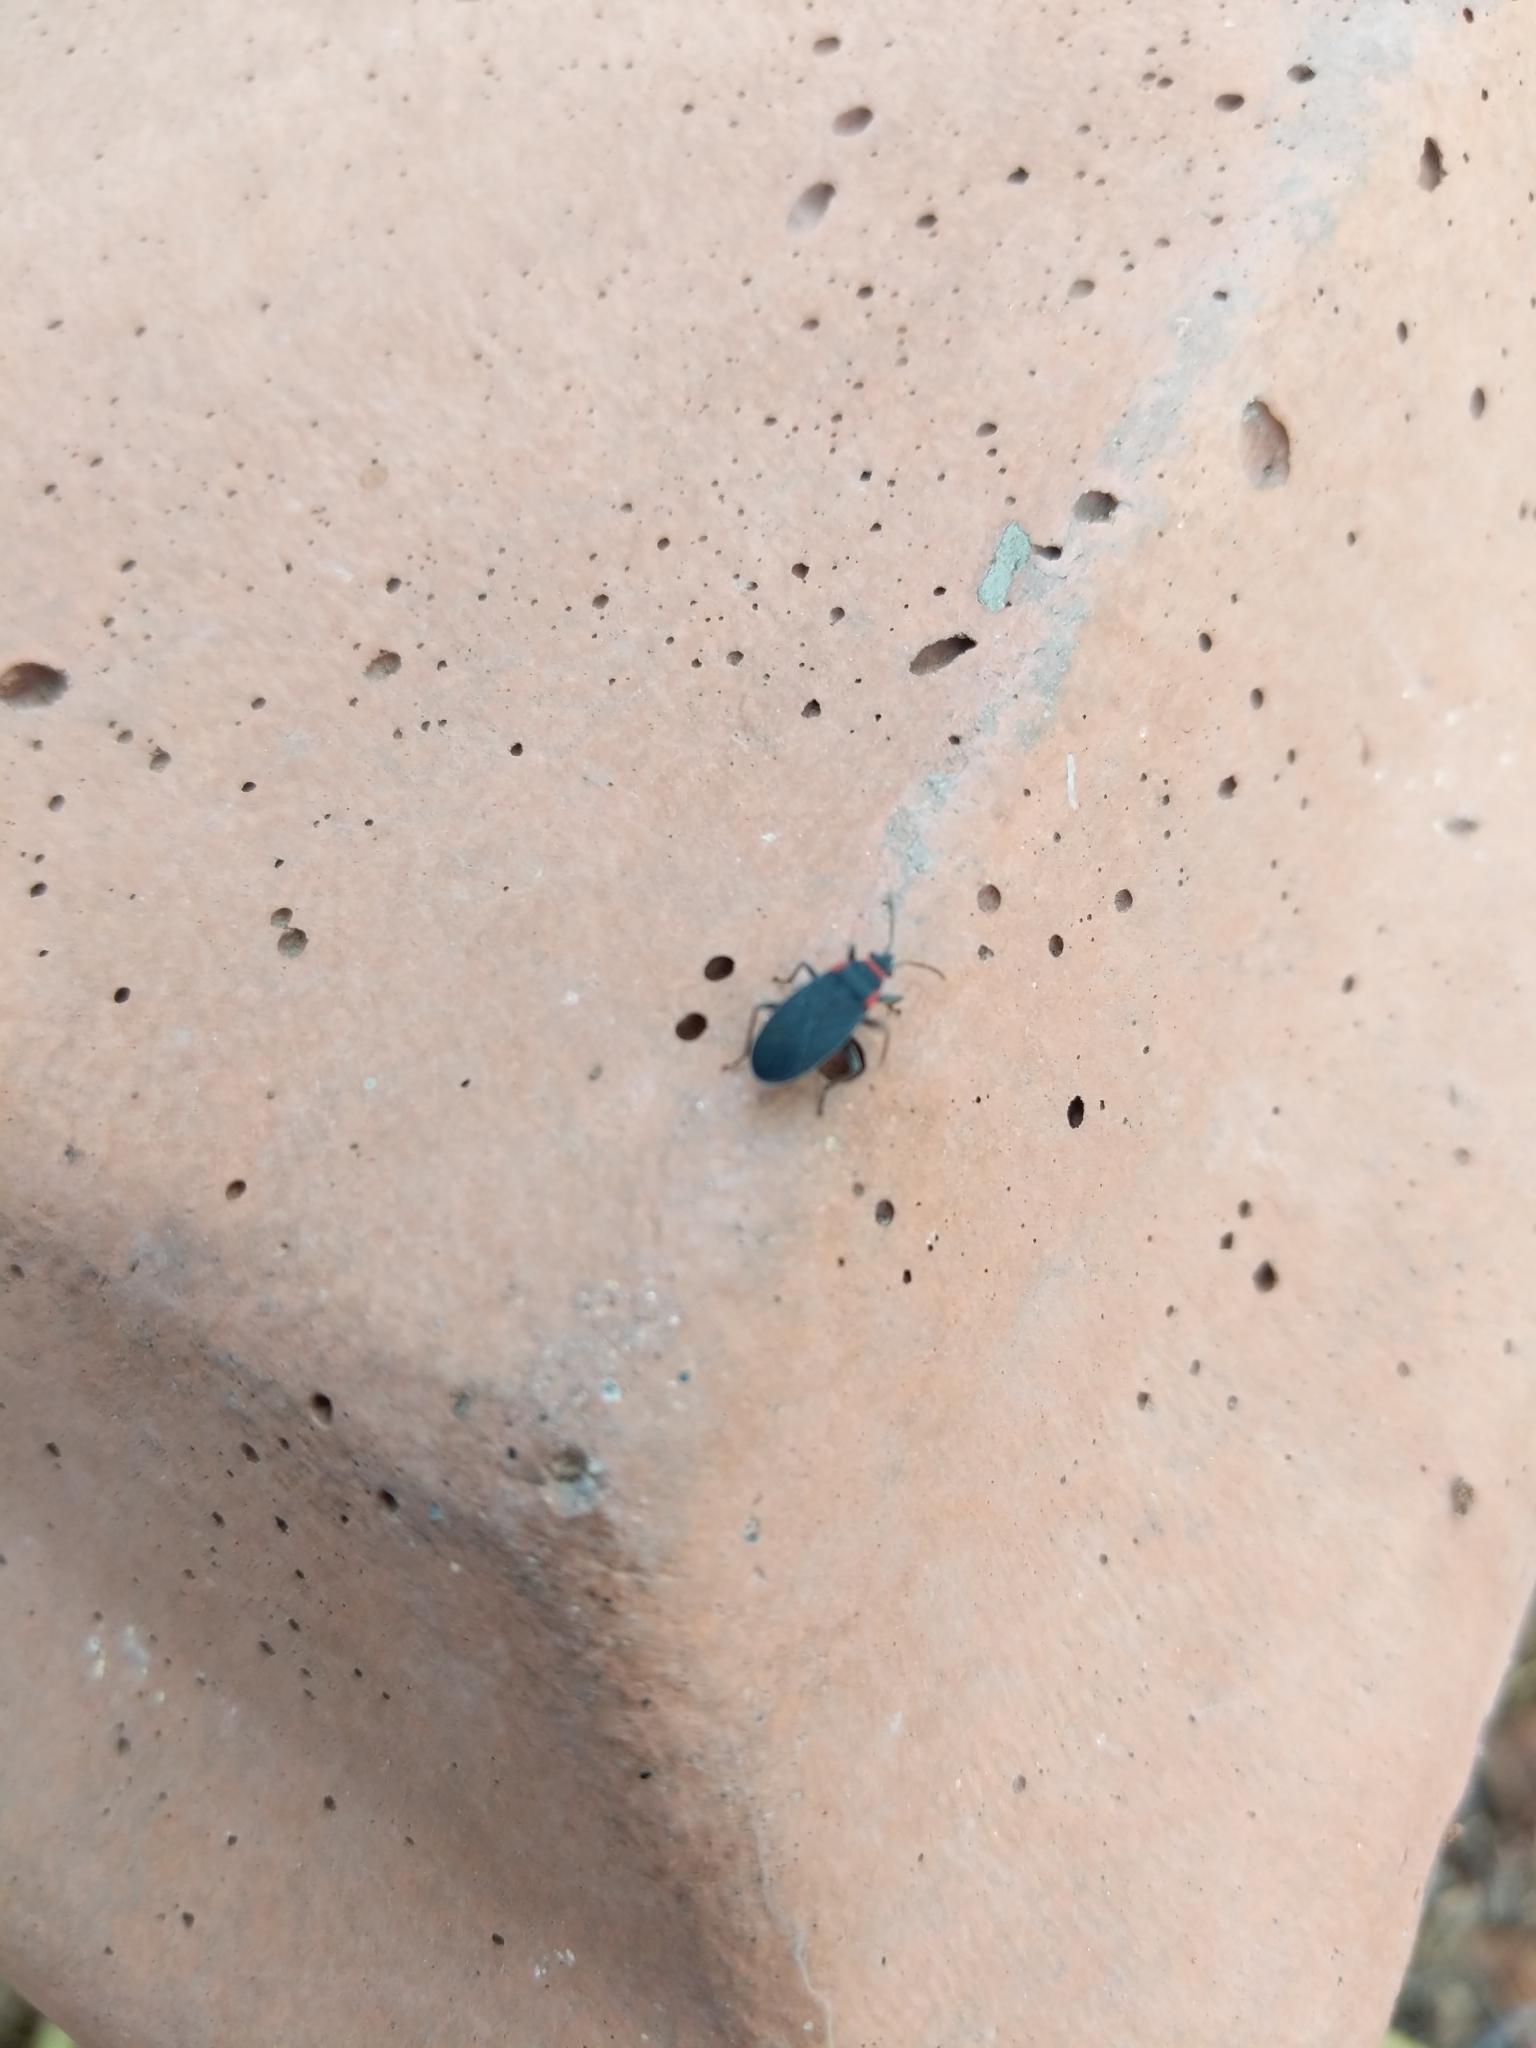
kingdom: Animalia
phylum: Arthropoda
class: Insecta
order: Hemiptera
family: Lygaeidae
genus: Melacoryphus
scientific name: Melacoryphus rubicollis
